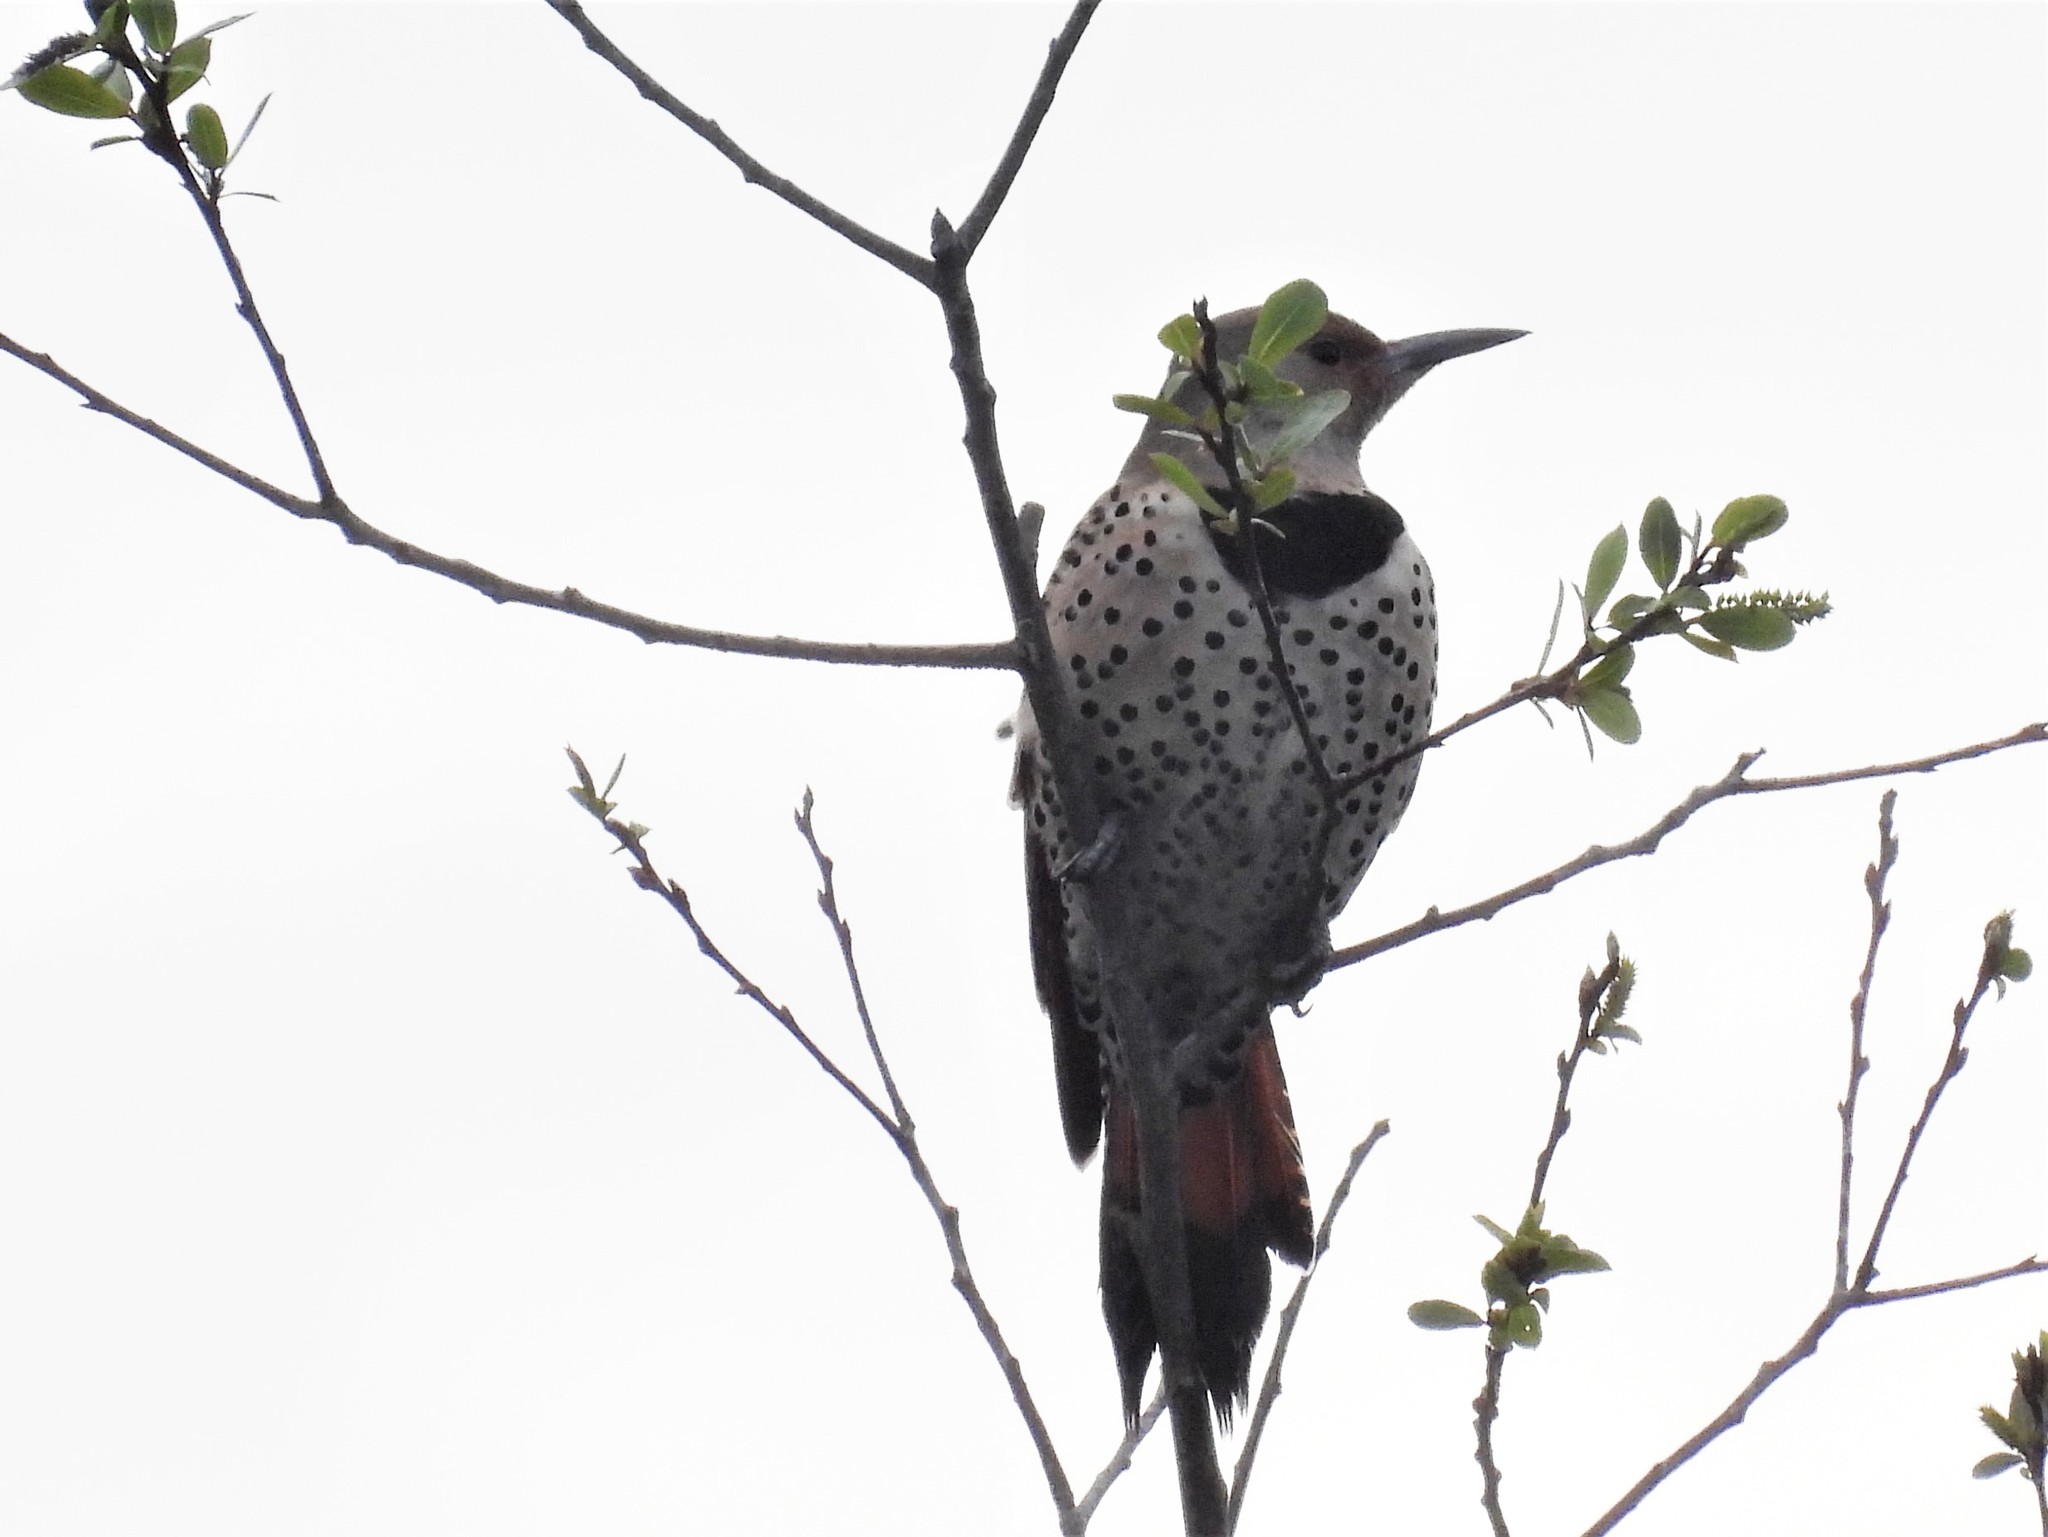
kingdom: Animalia
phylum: Chordata
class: Aves
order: Piciformes
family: Picidae
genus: Colaptes
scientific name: Colaptes auratus
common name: Northern flicker
